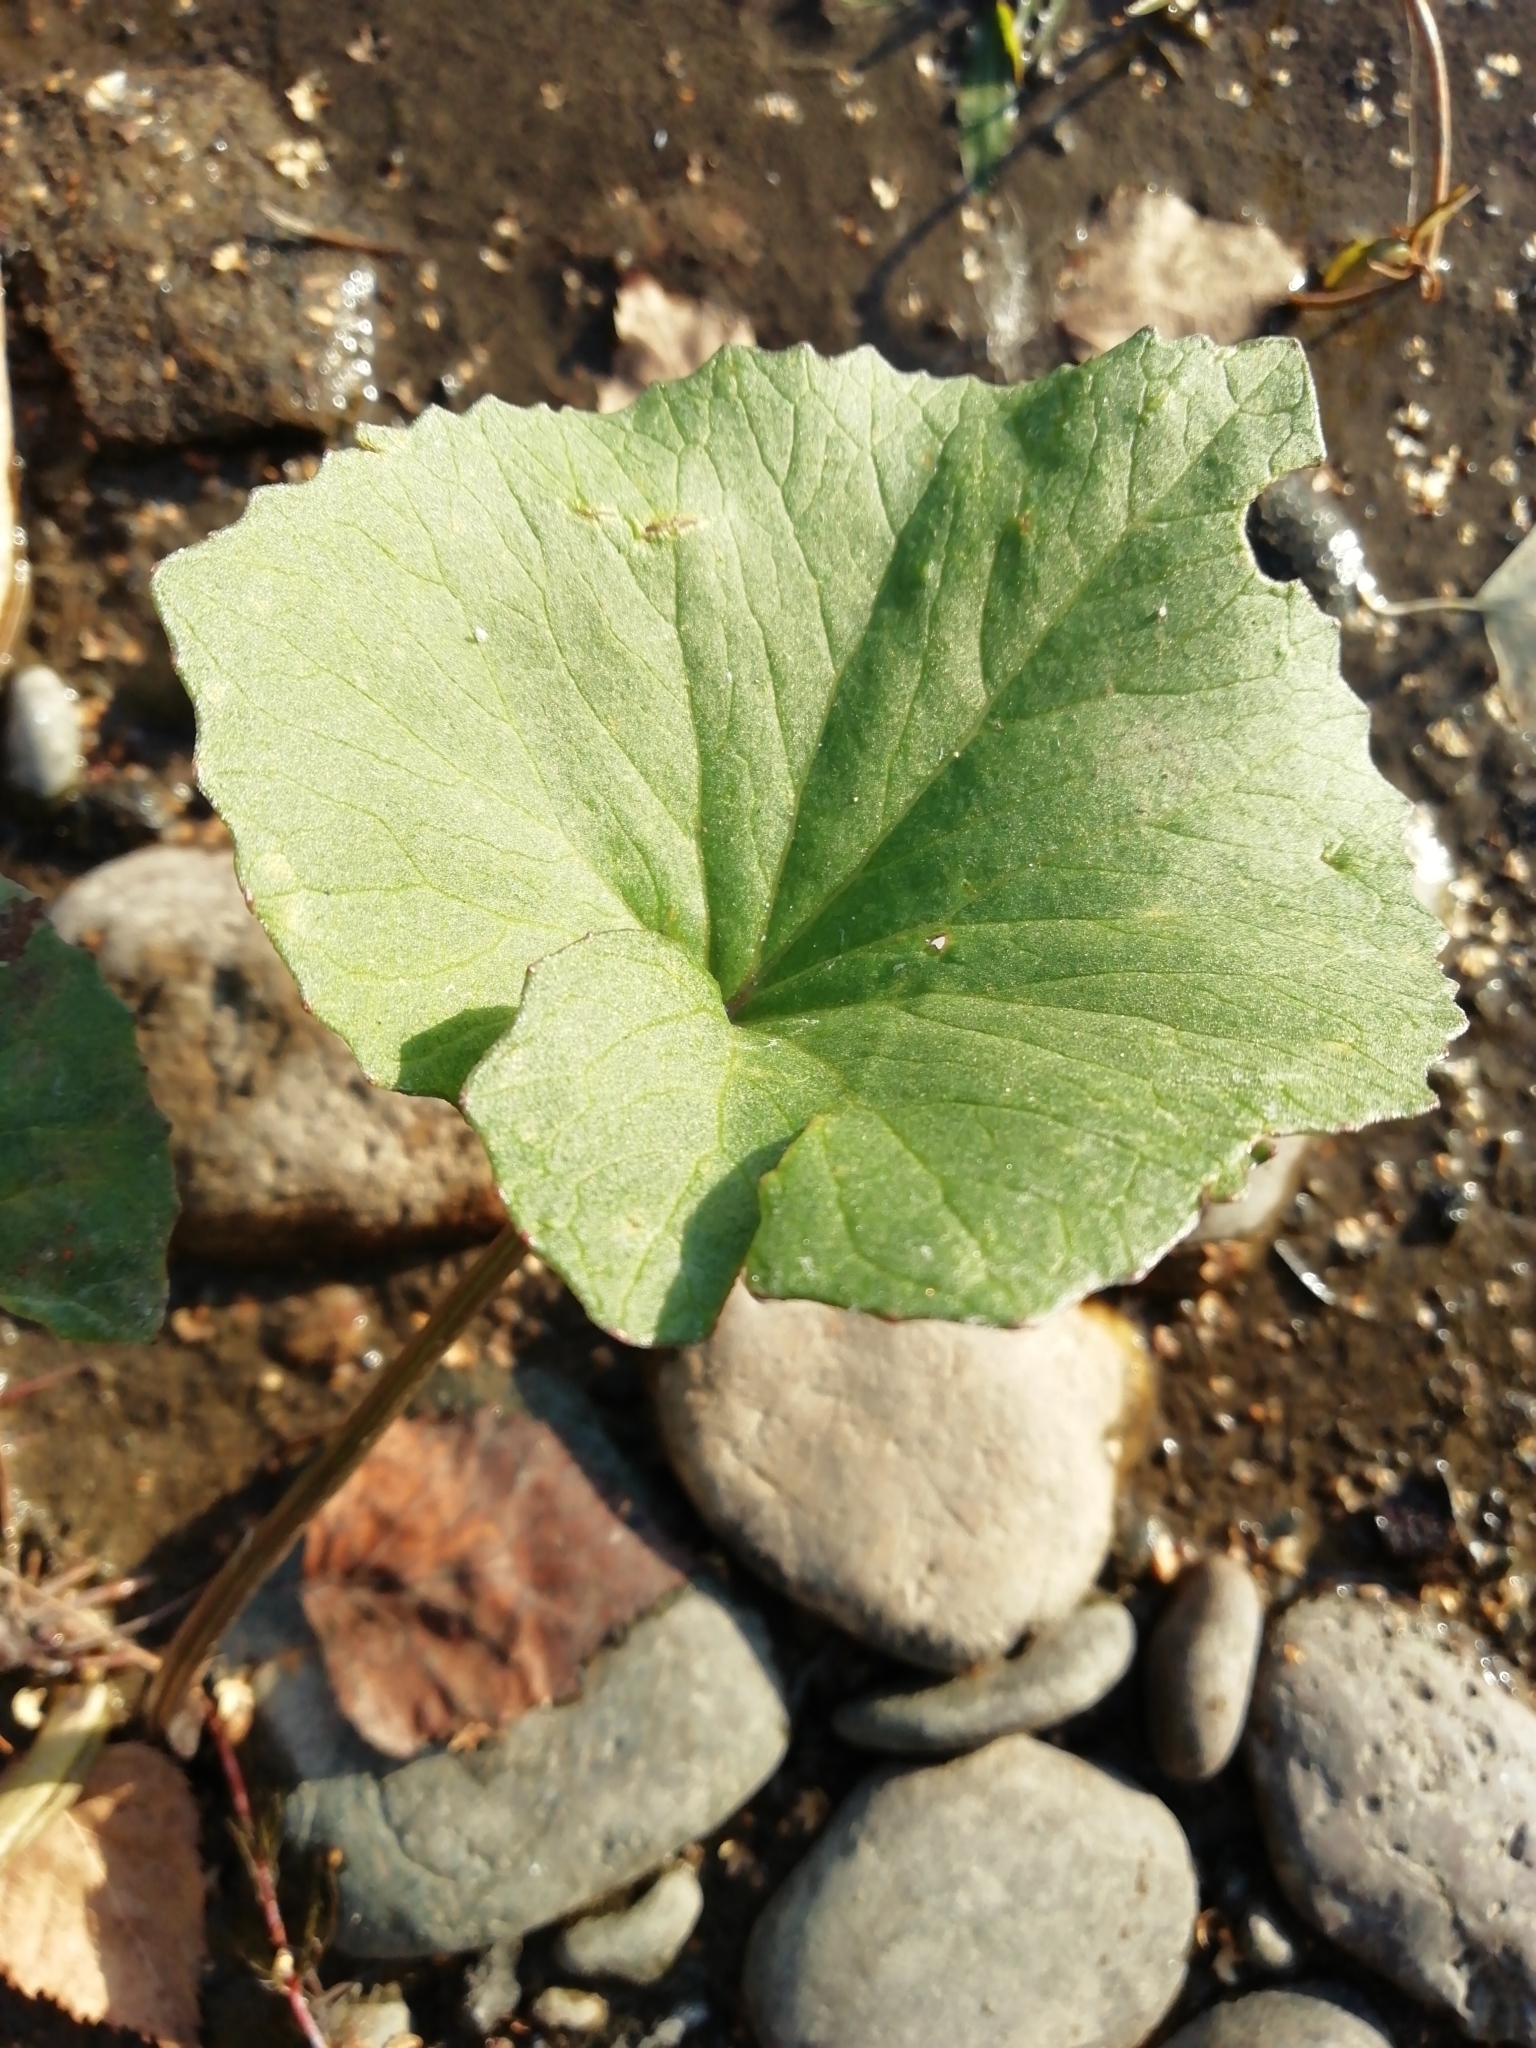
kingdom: Plantae
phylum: Tracheophyta
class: Magnoliopsida
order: Asterales
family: Asteraceae
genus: Petasites
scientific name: Petasites radiatus
